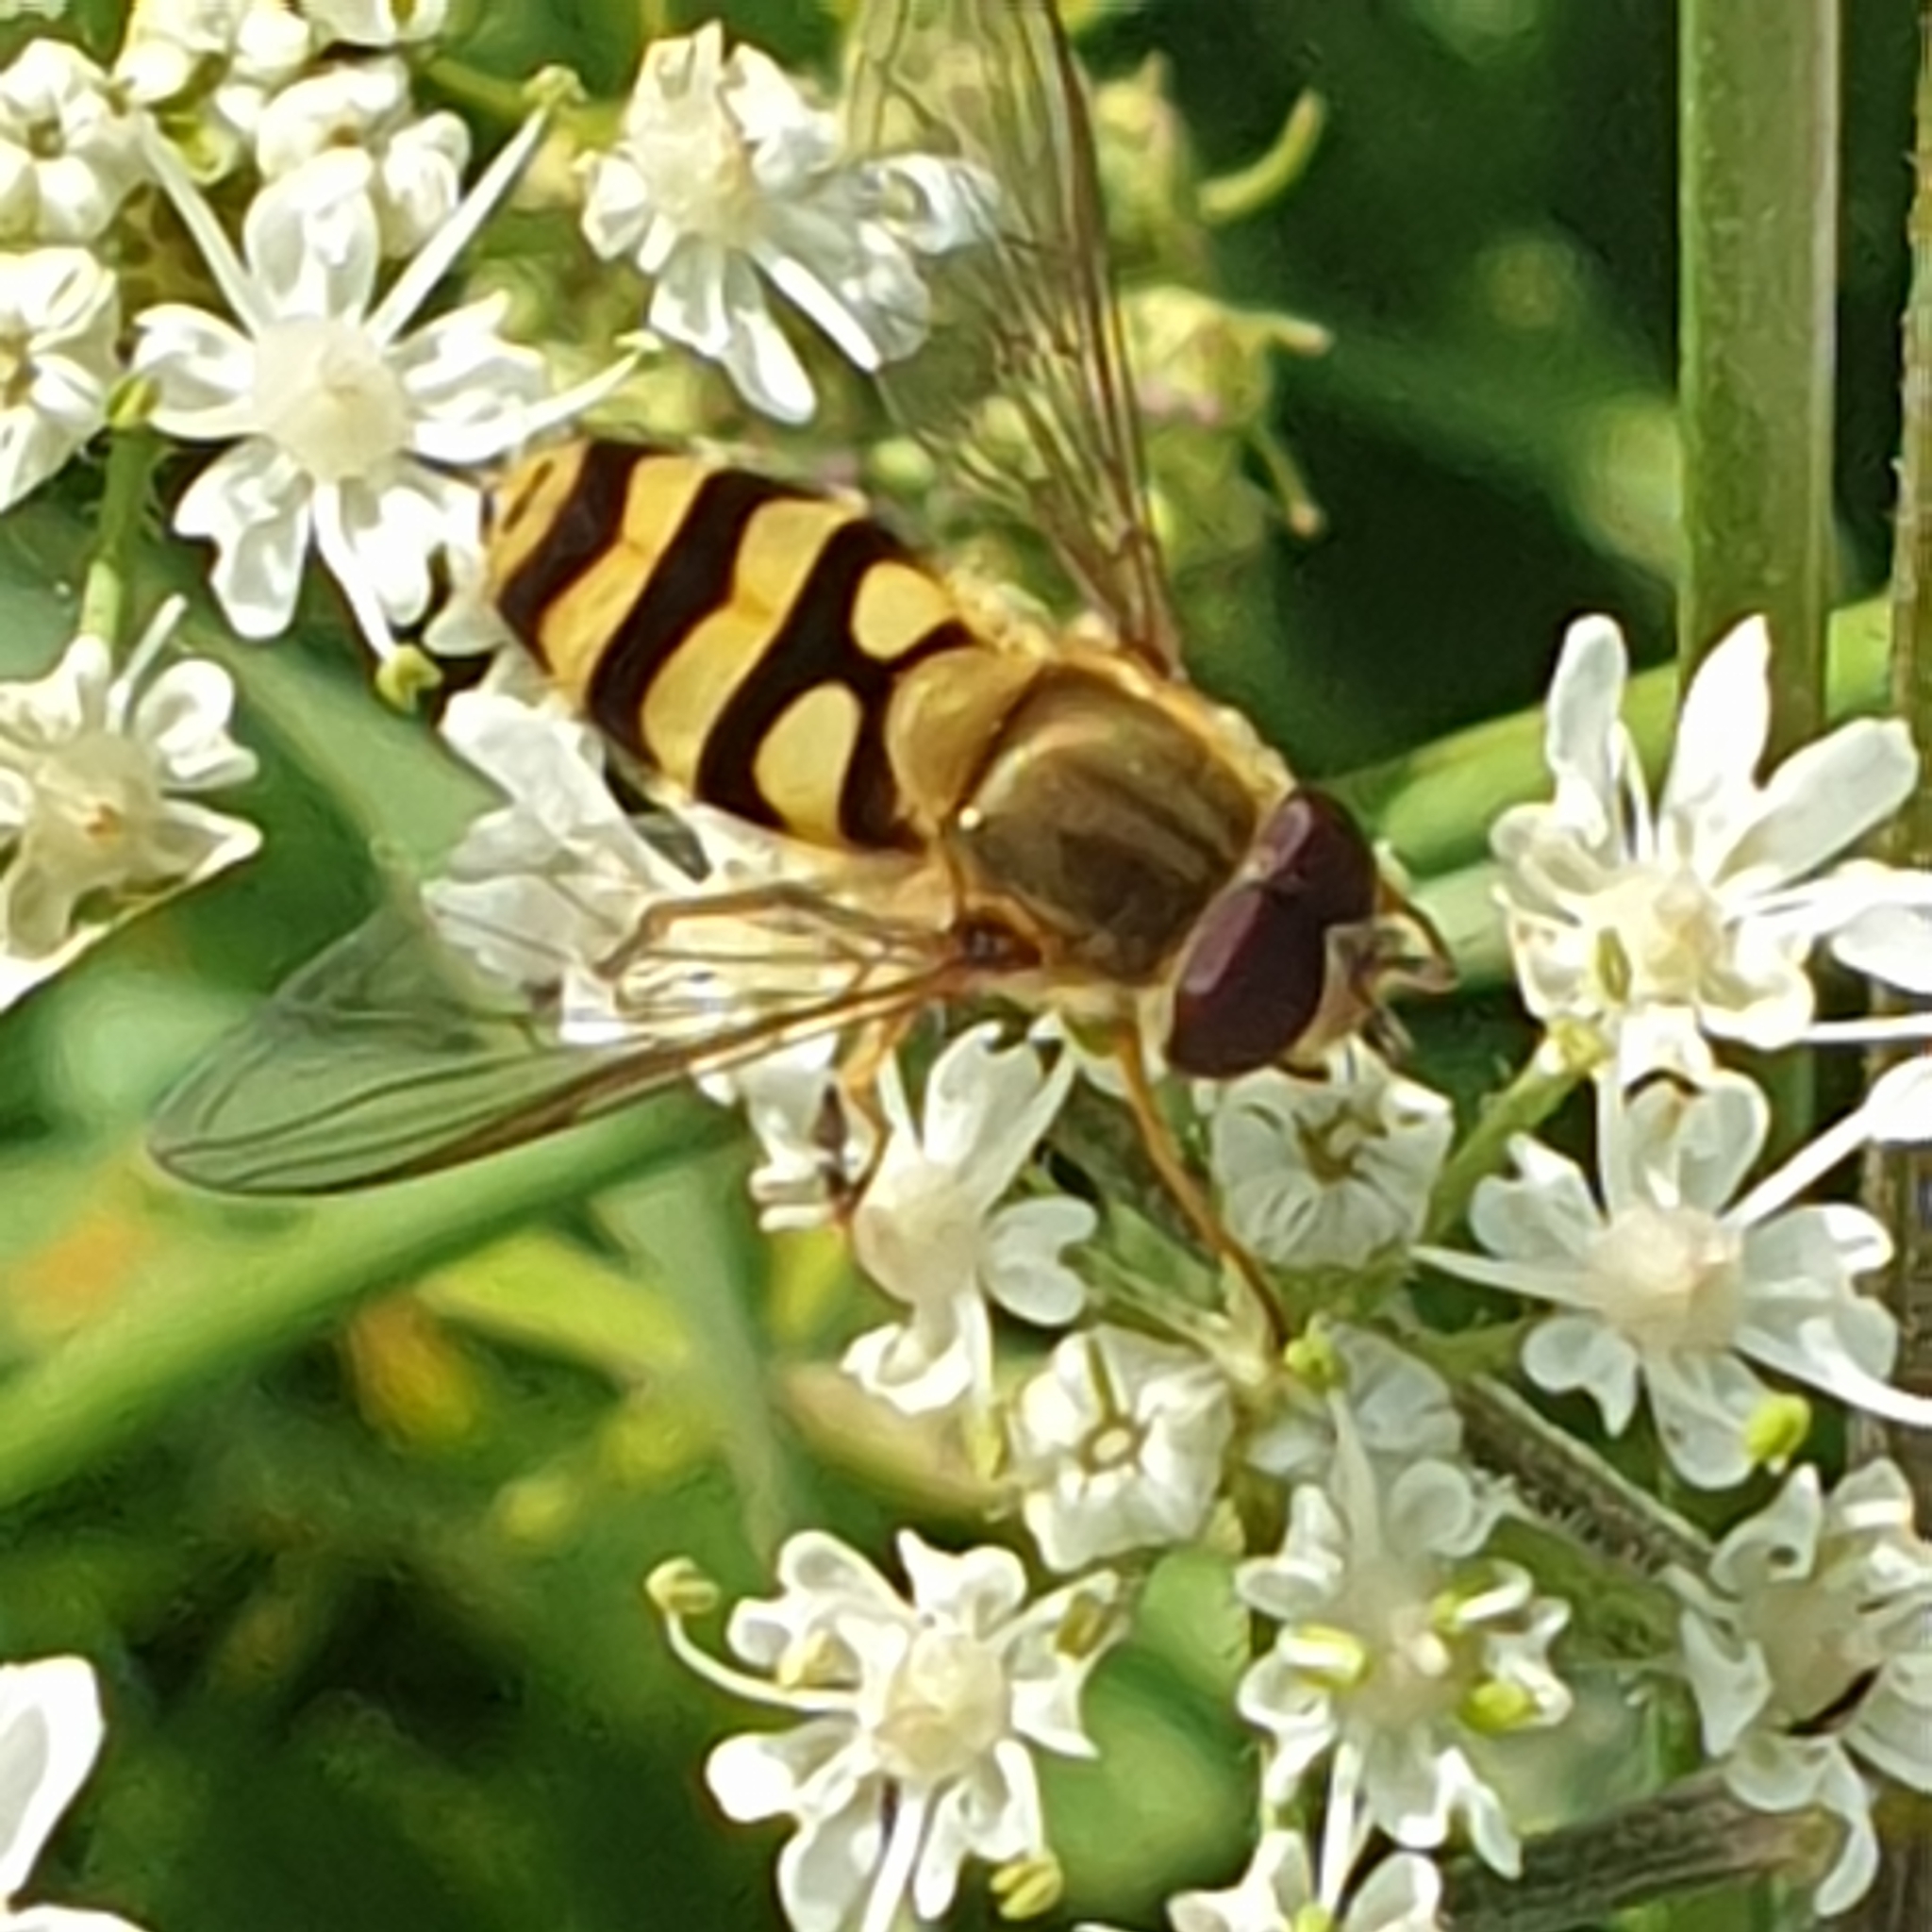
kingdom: Animalia
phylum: Arthropoda
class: Insecta
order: Diptera
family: Syrphidae
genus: Syrphus
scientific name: Syrphus
